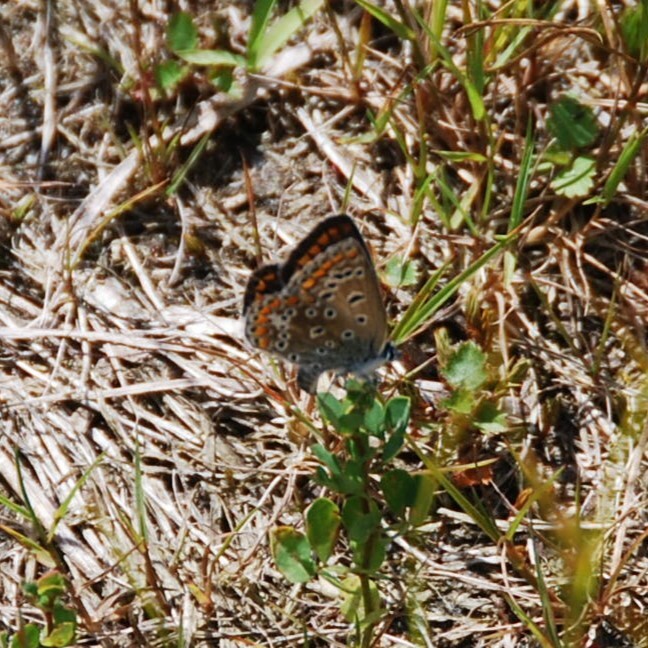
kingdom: Animalia
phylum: Arthropoda
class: Insecta
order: Lepidoptera
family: Lycaenidae
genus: Polyommatus
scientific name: Polyommatus icarus
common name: Common blue
